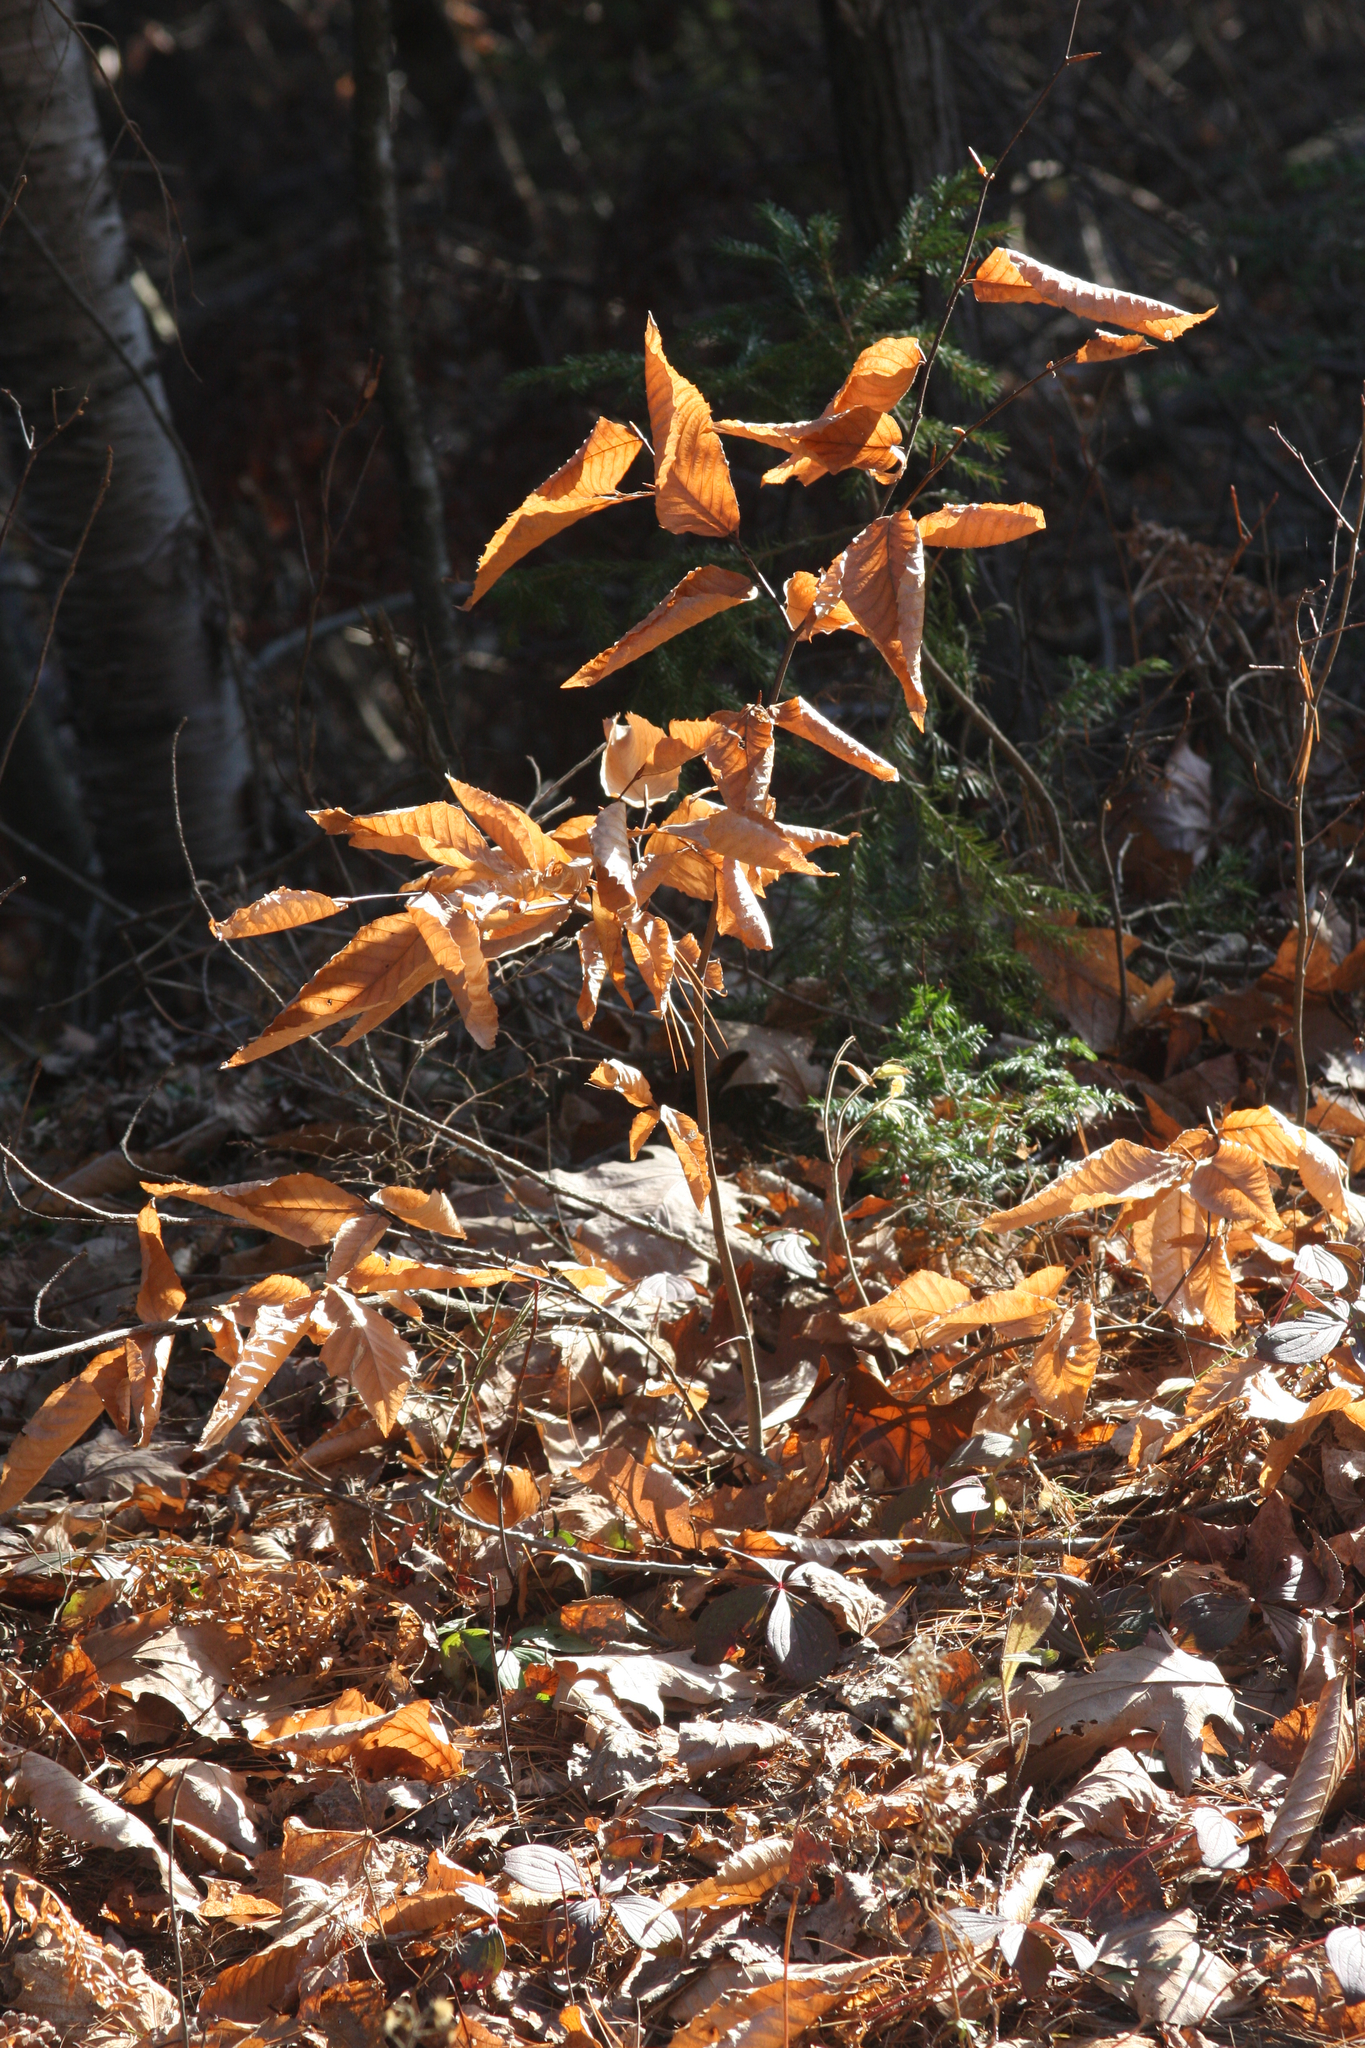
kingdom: Plantae
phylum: Tracheophyta
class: Magnoliopsida
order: Fagales
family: Fagaceae
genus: Fagus
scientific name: Fagus grandifolia
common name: American beech
